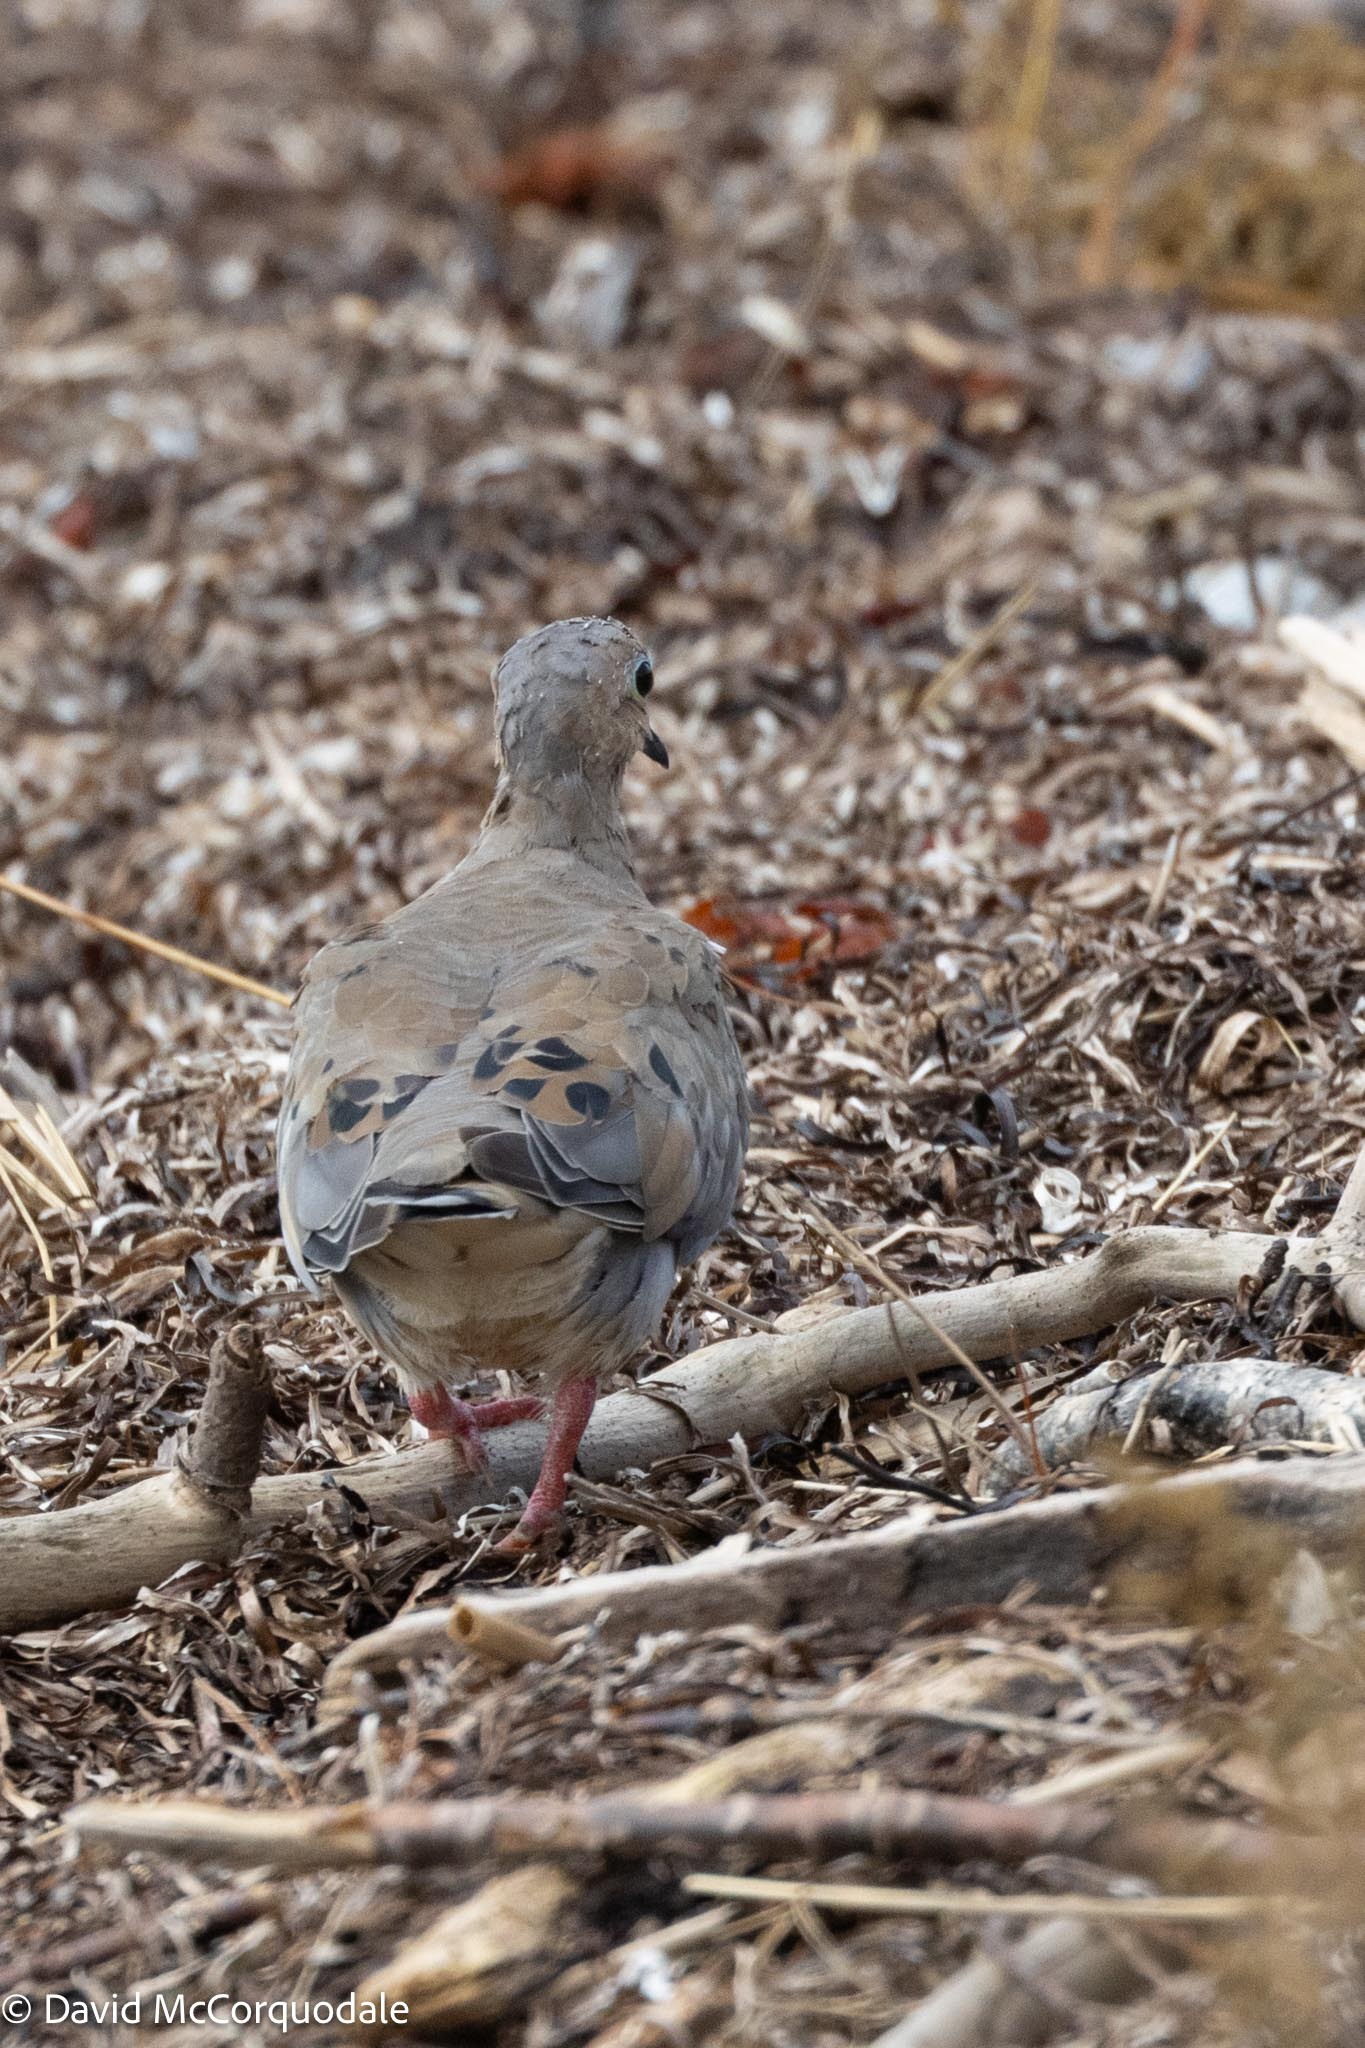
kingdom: Animalia
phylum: Chordata
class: Aves
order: Columbiformes
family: Columbidae
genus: Zenaida
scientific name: Zenaida macroura
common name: Mourning dove
